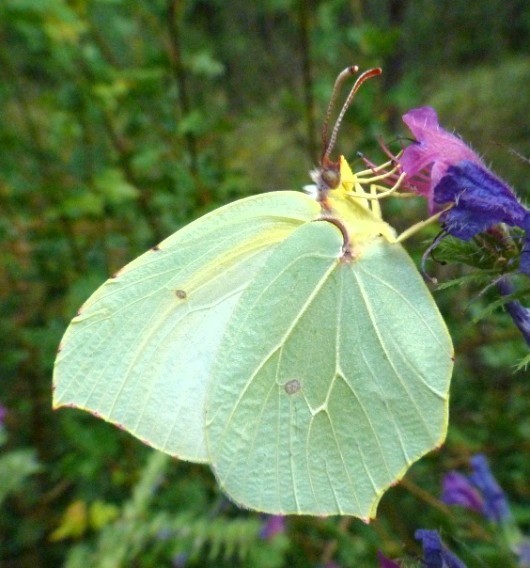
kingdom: Animalia
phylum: Arthropoda
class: Insecta
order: Lepidoptera
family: Pieridae
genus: Gonepteryx
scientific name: Gonepteryx cleopatra
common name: Cleopatra
